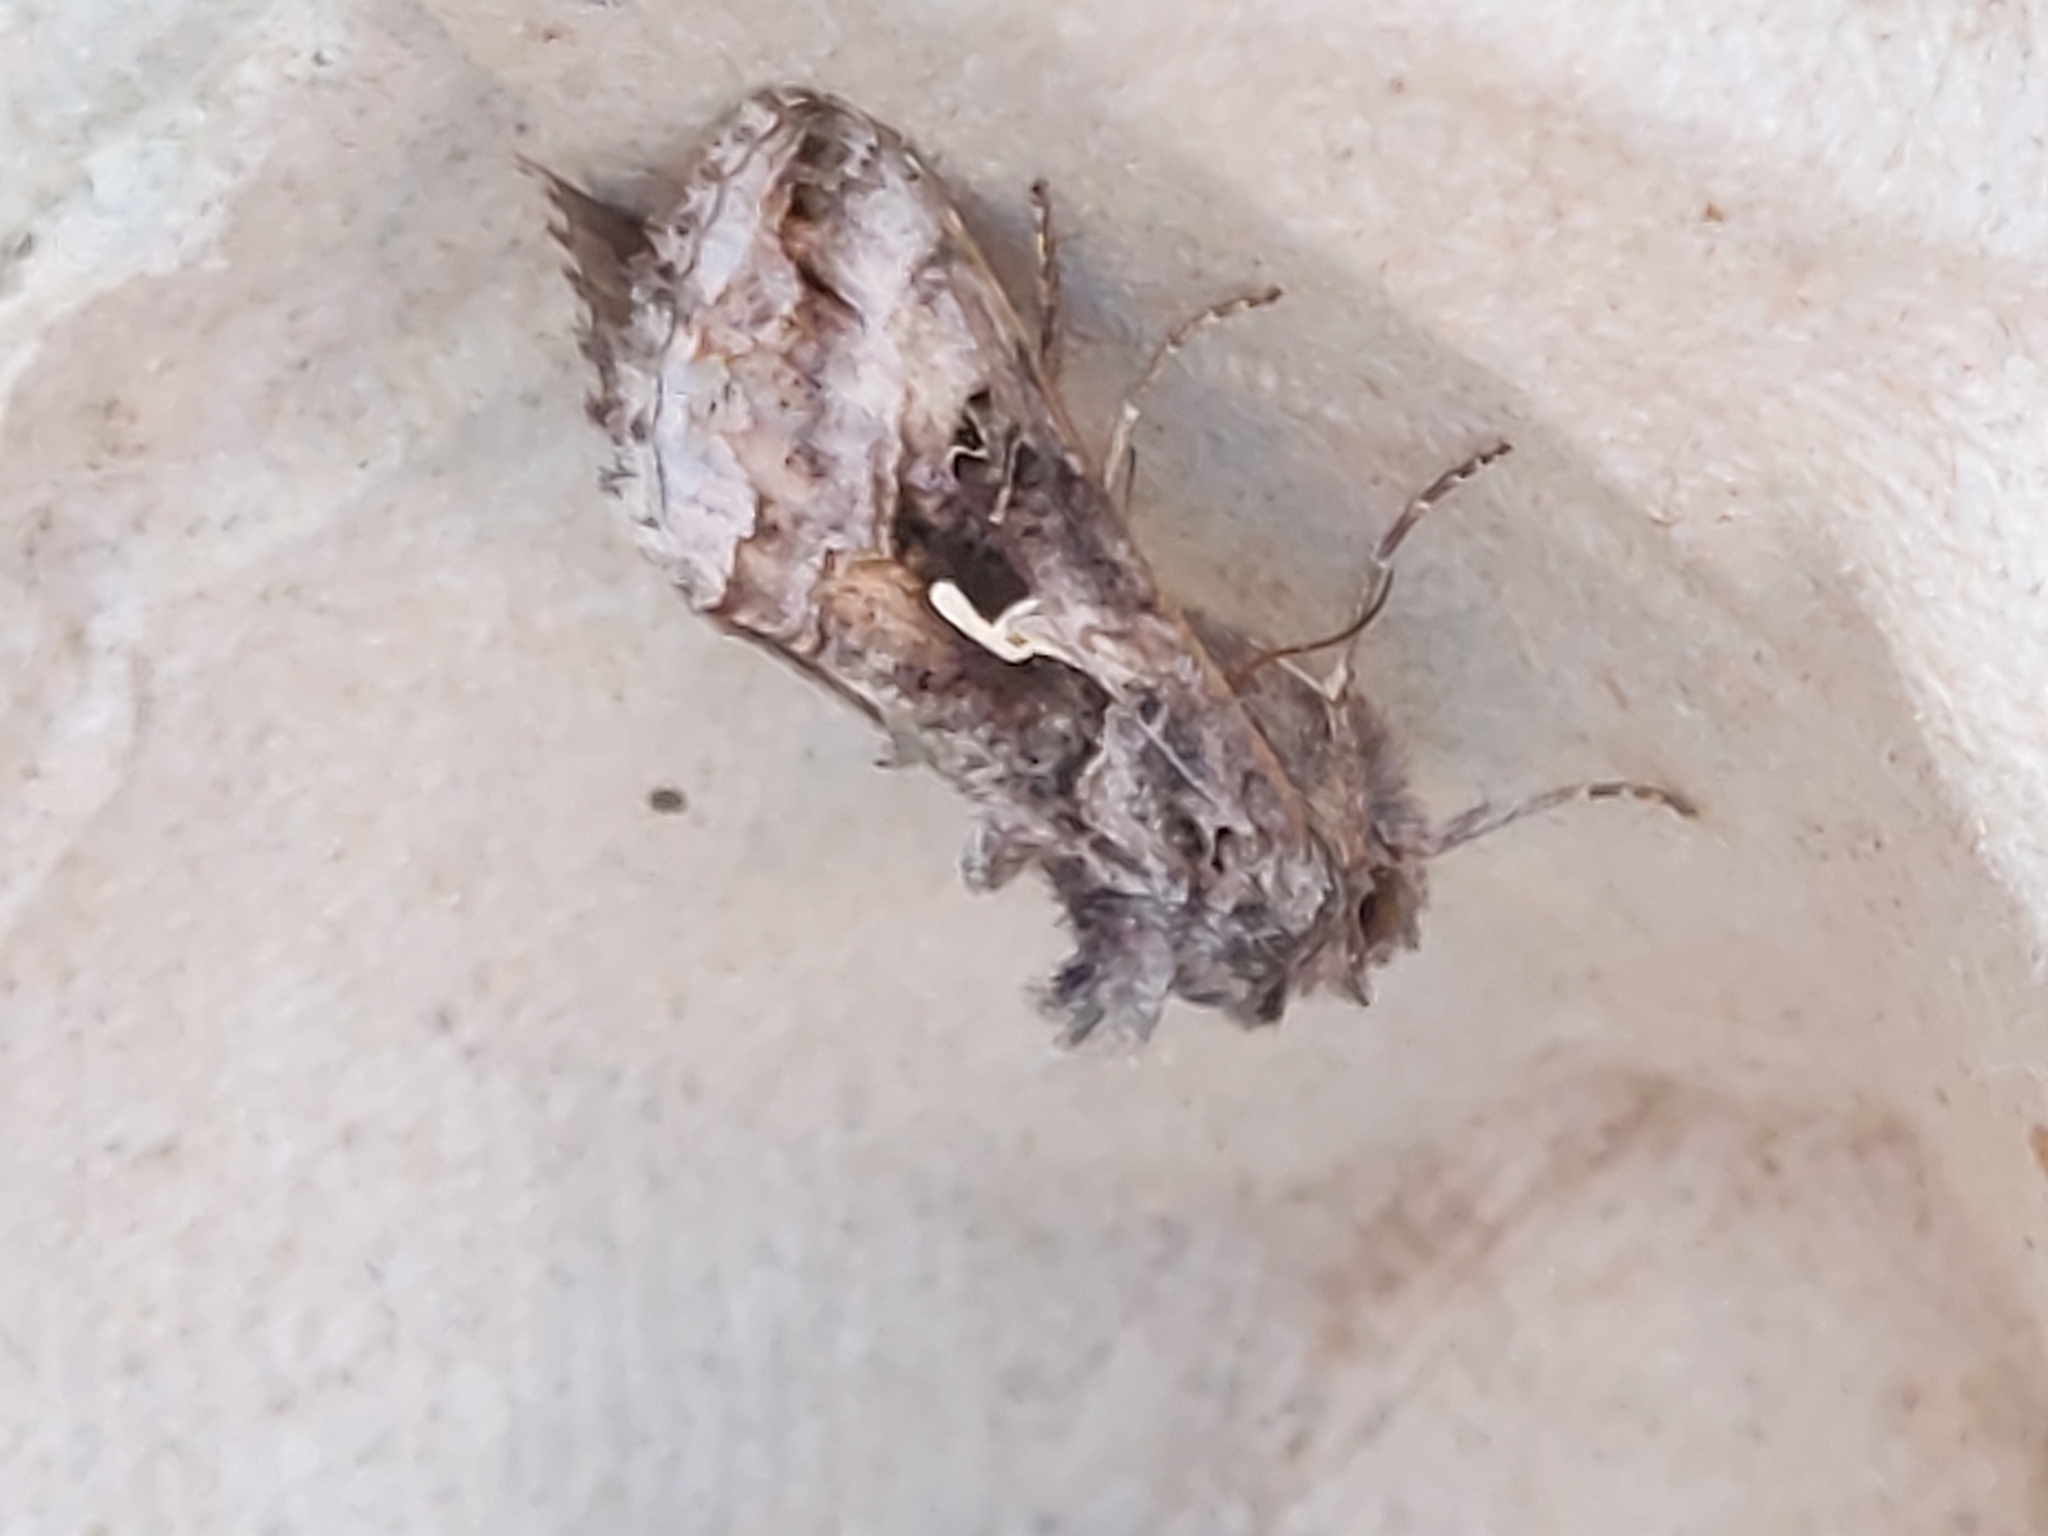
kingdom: Animalia
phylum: Arthropoda
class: Insecta
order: Lepidoptera
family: Noctuidae
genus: Autographa
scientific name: Autographa gamma
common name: Silver y
